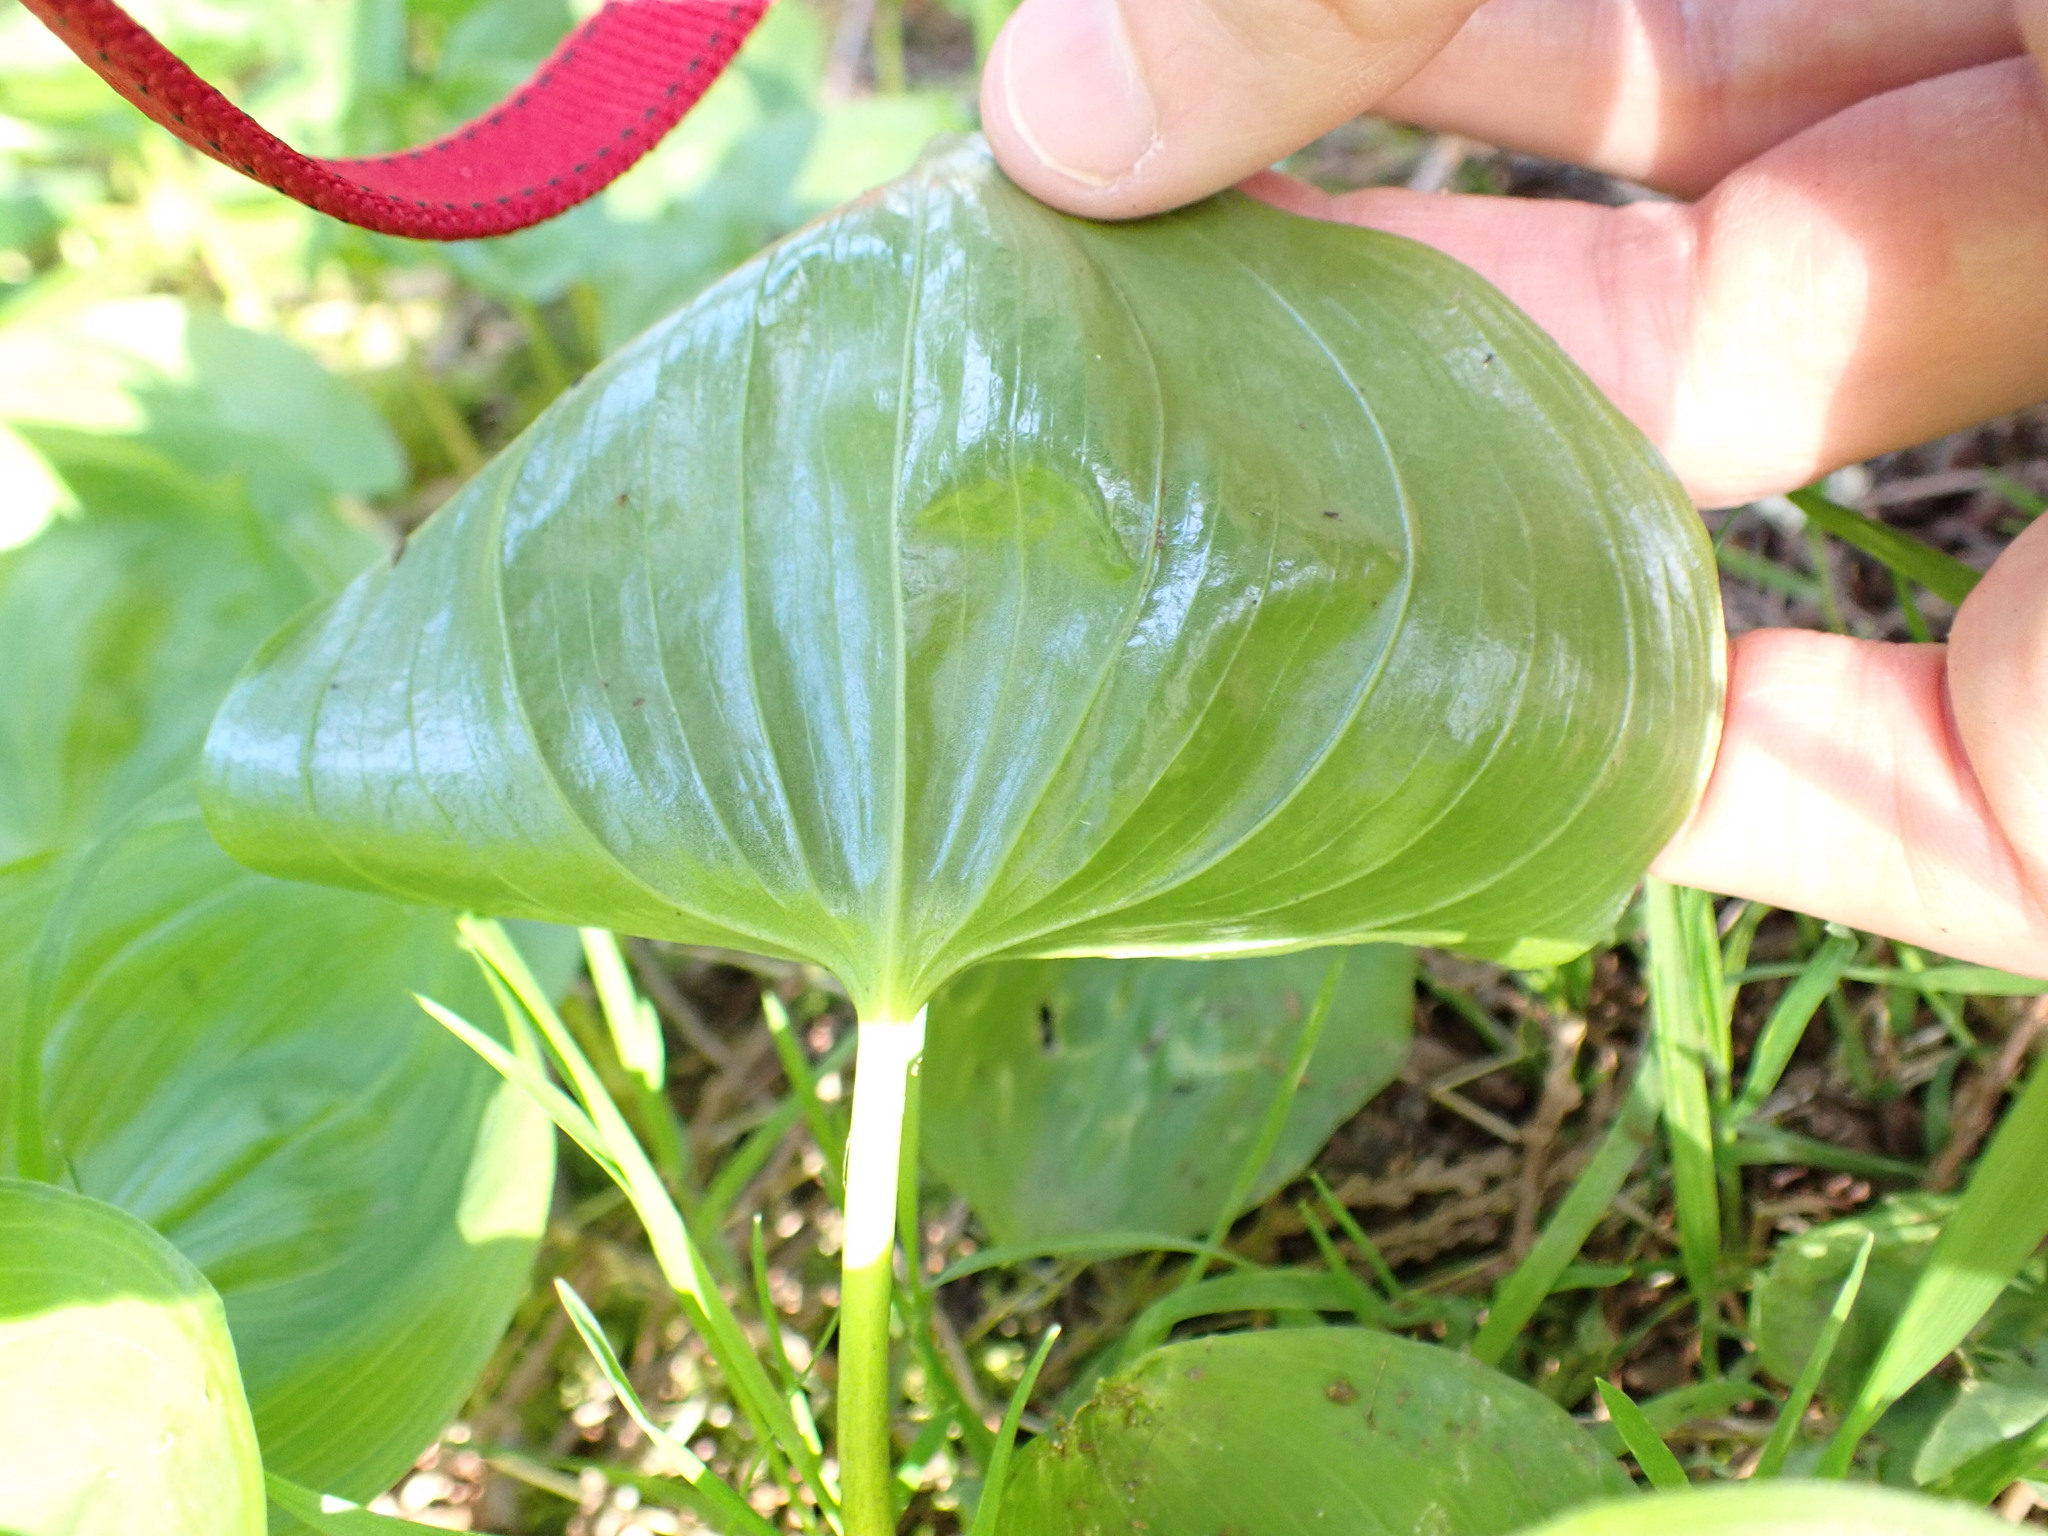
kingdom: Plantae
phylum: Tracheophyta
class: Liliopsida
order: Asparagales
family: Asparagaceae
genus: Maianthemum
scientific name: Maianthemum dilatatum
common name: False lily-of-the-valley
